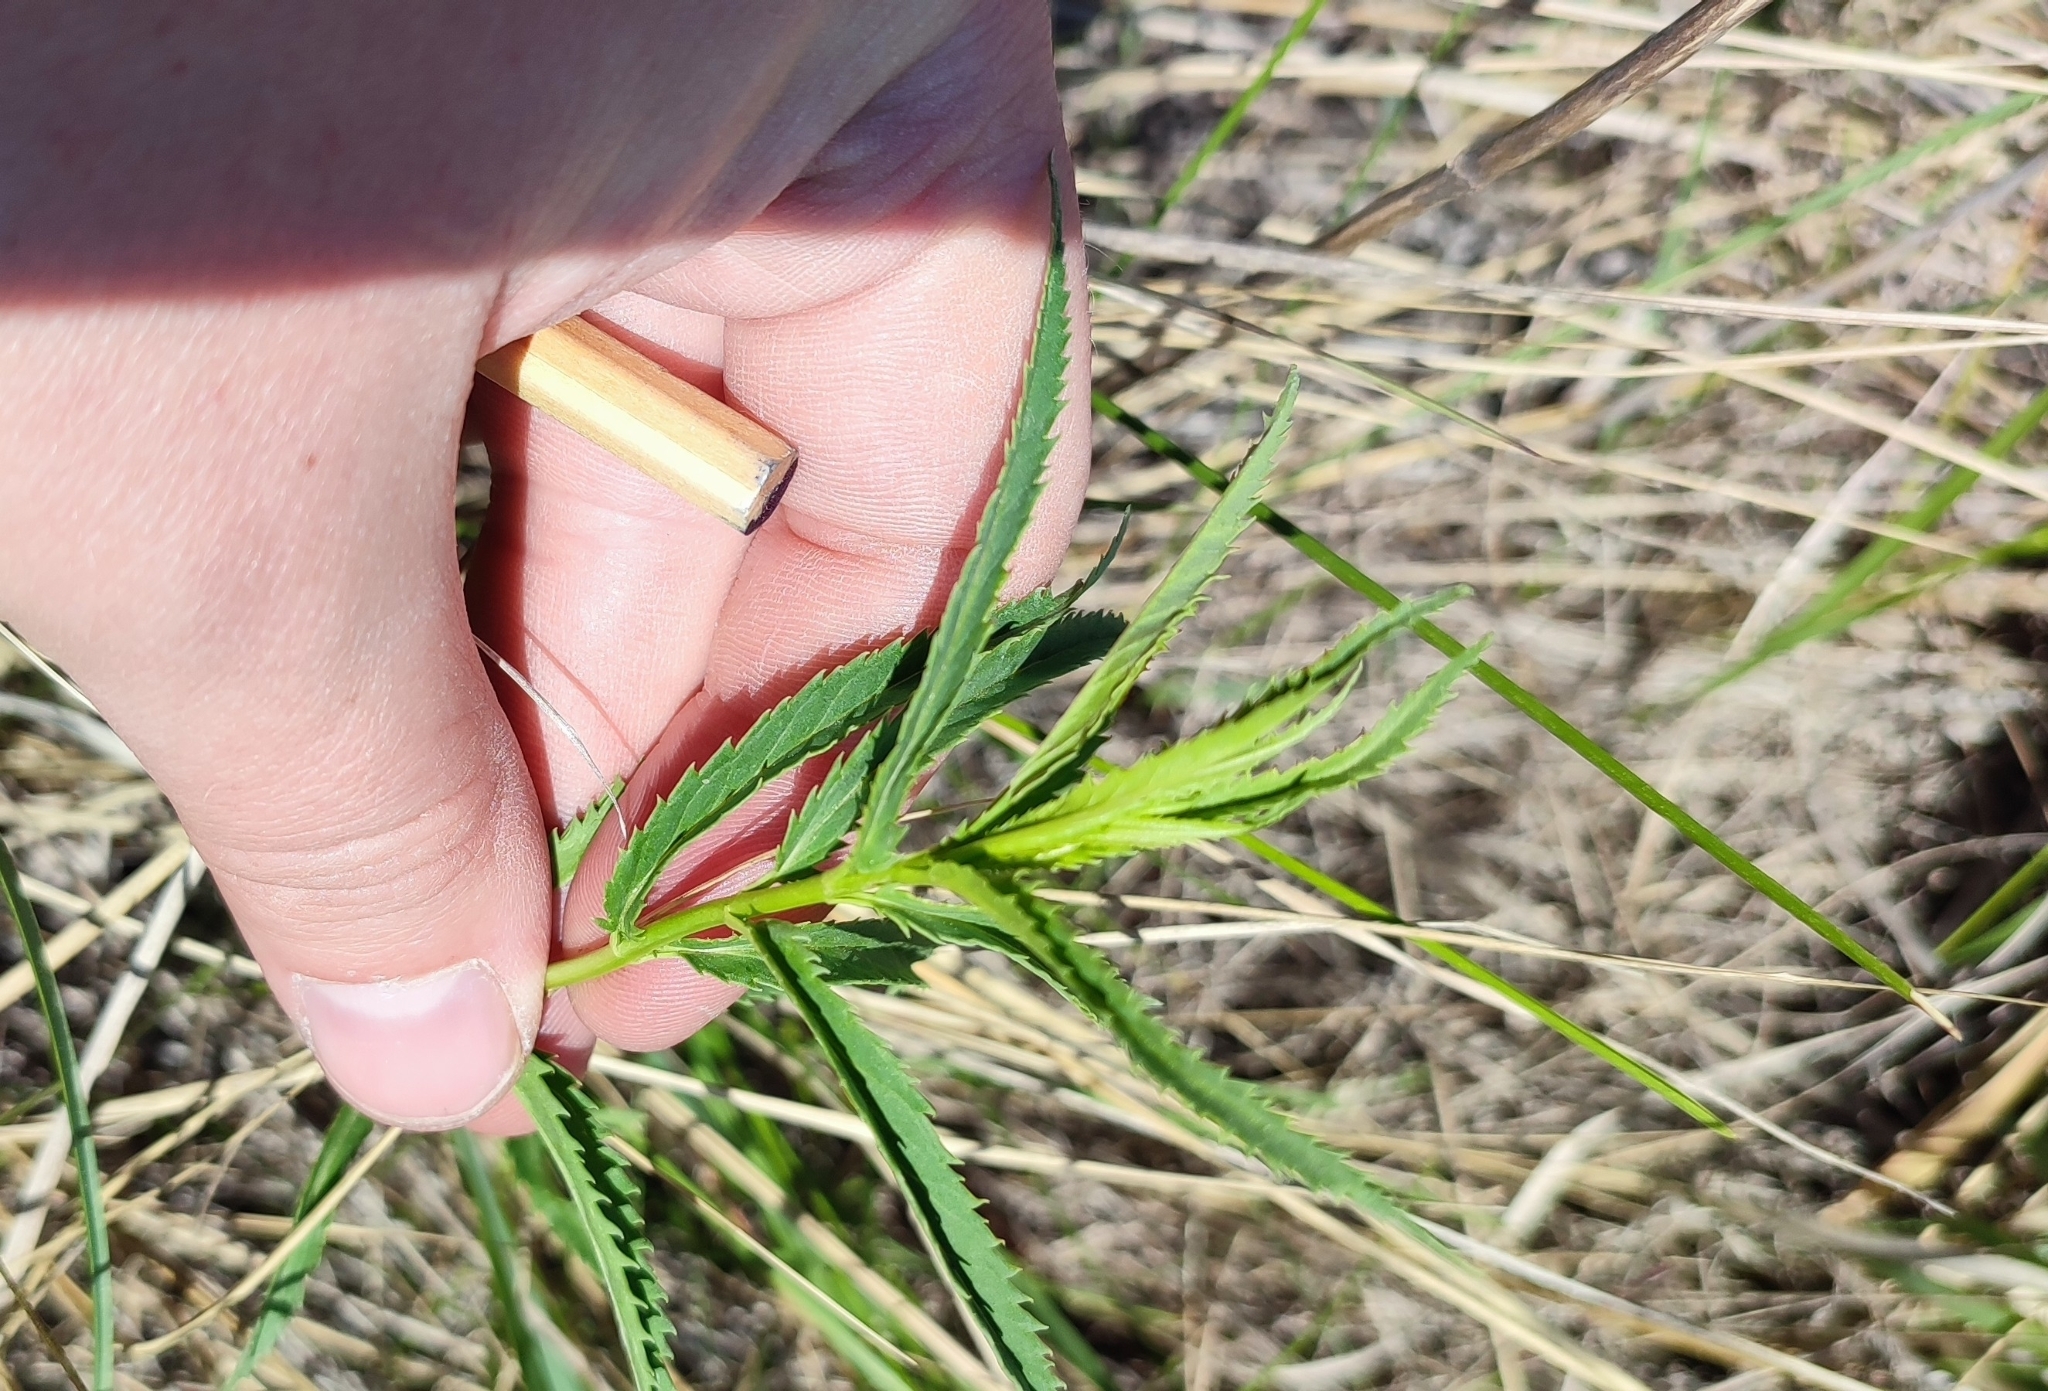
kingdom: Plantae
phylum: Tracheophyta
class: Magnoliopsida
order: Lamiales
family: Plantaginaceae
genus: Veronica
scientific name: Veronica longifolia
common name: Garden speedwell
